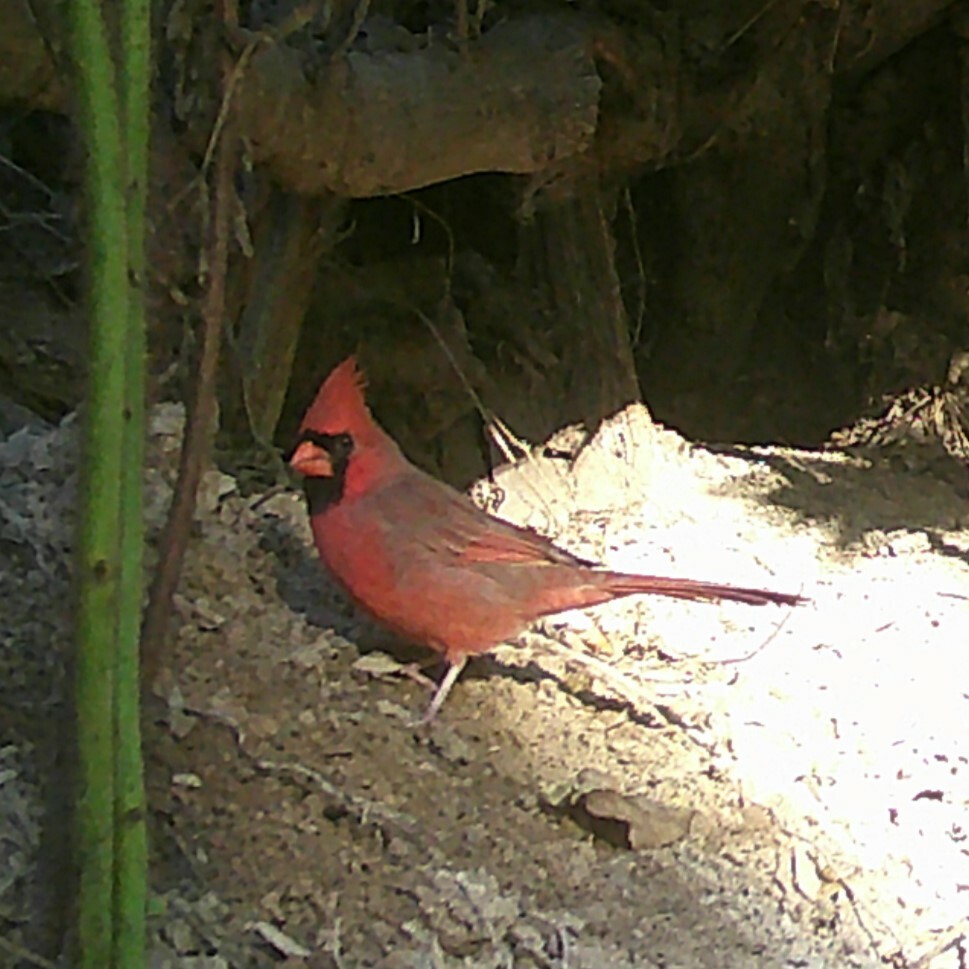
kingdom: Animalia
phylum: Chordata
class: Aves
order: Passeriformes
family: Cardinalidae
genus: Cardinalis
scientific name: Cardinalis cardinalis
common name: Northern cardinal
